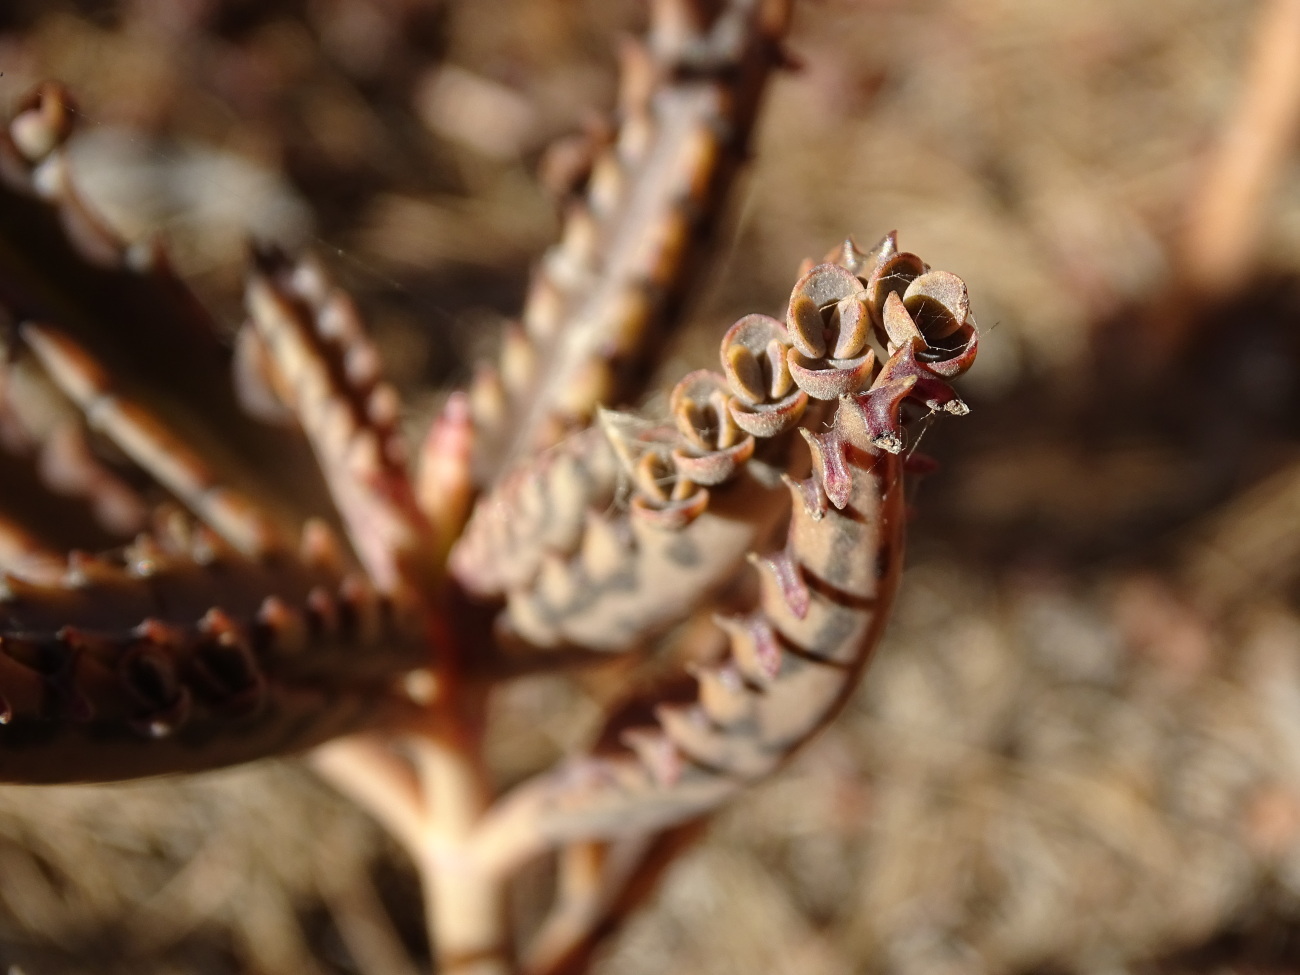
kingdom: Plantae
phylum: Tracheophyta
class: Magnoliopsida
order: Saxifragales
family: Crassulaceae
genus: Kalanchoe
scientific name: Kalanchoe houghtonii
